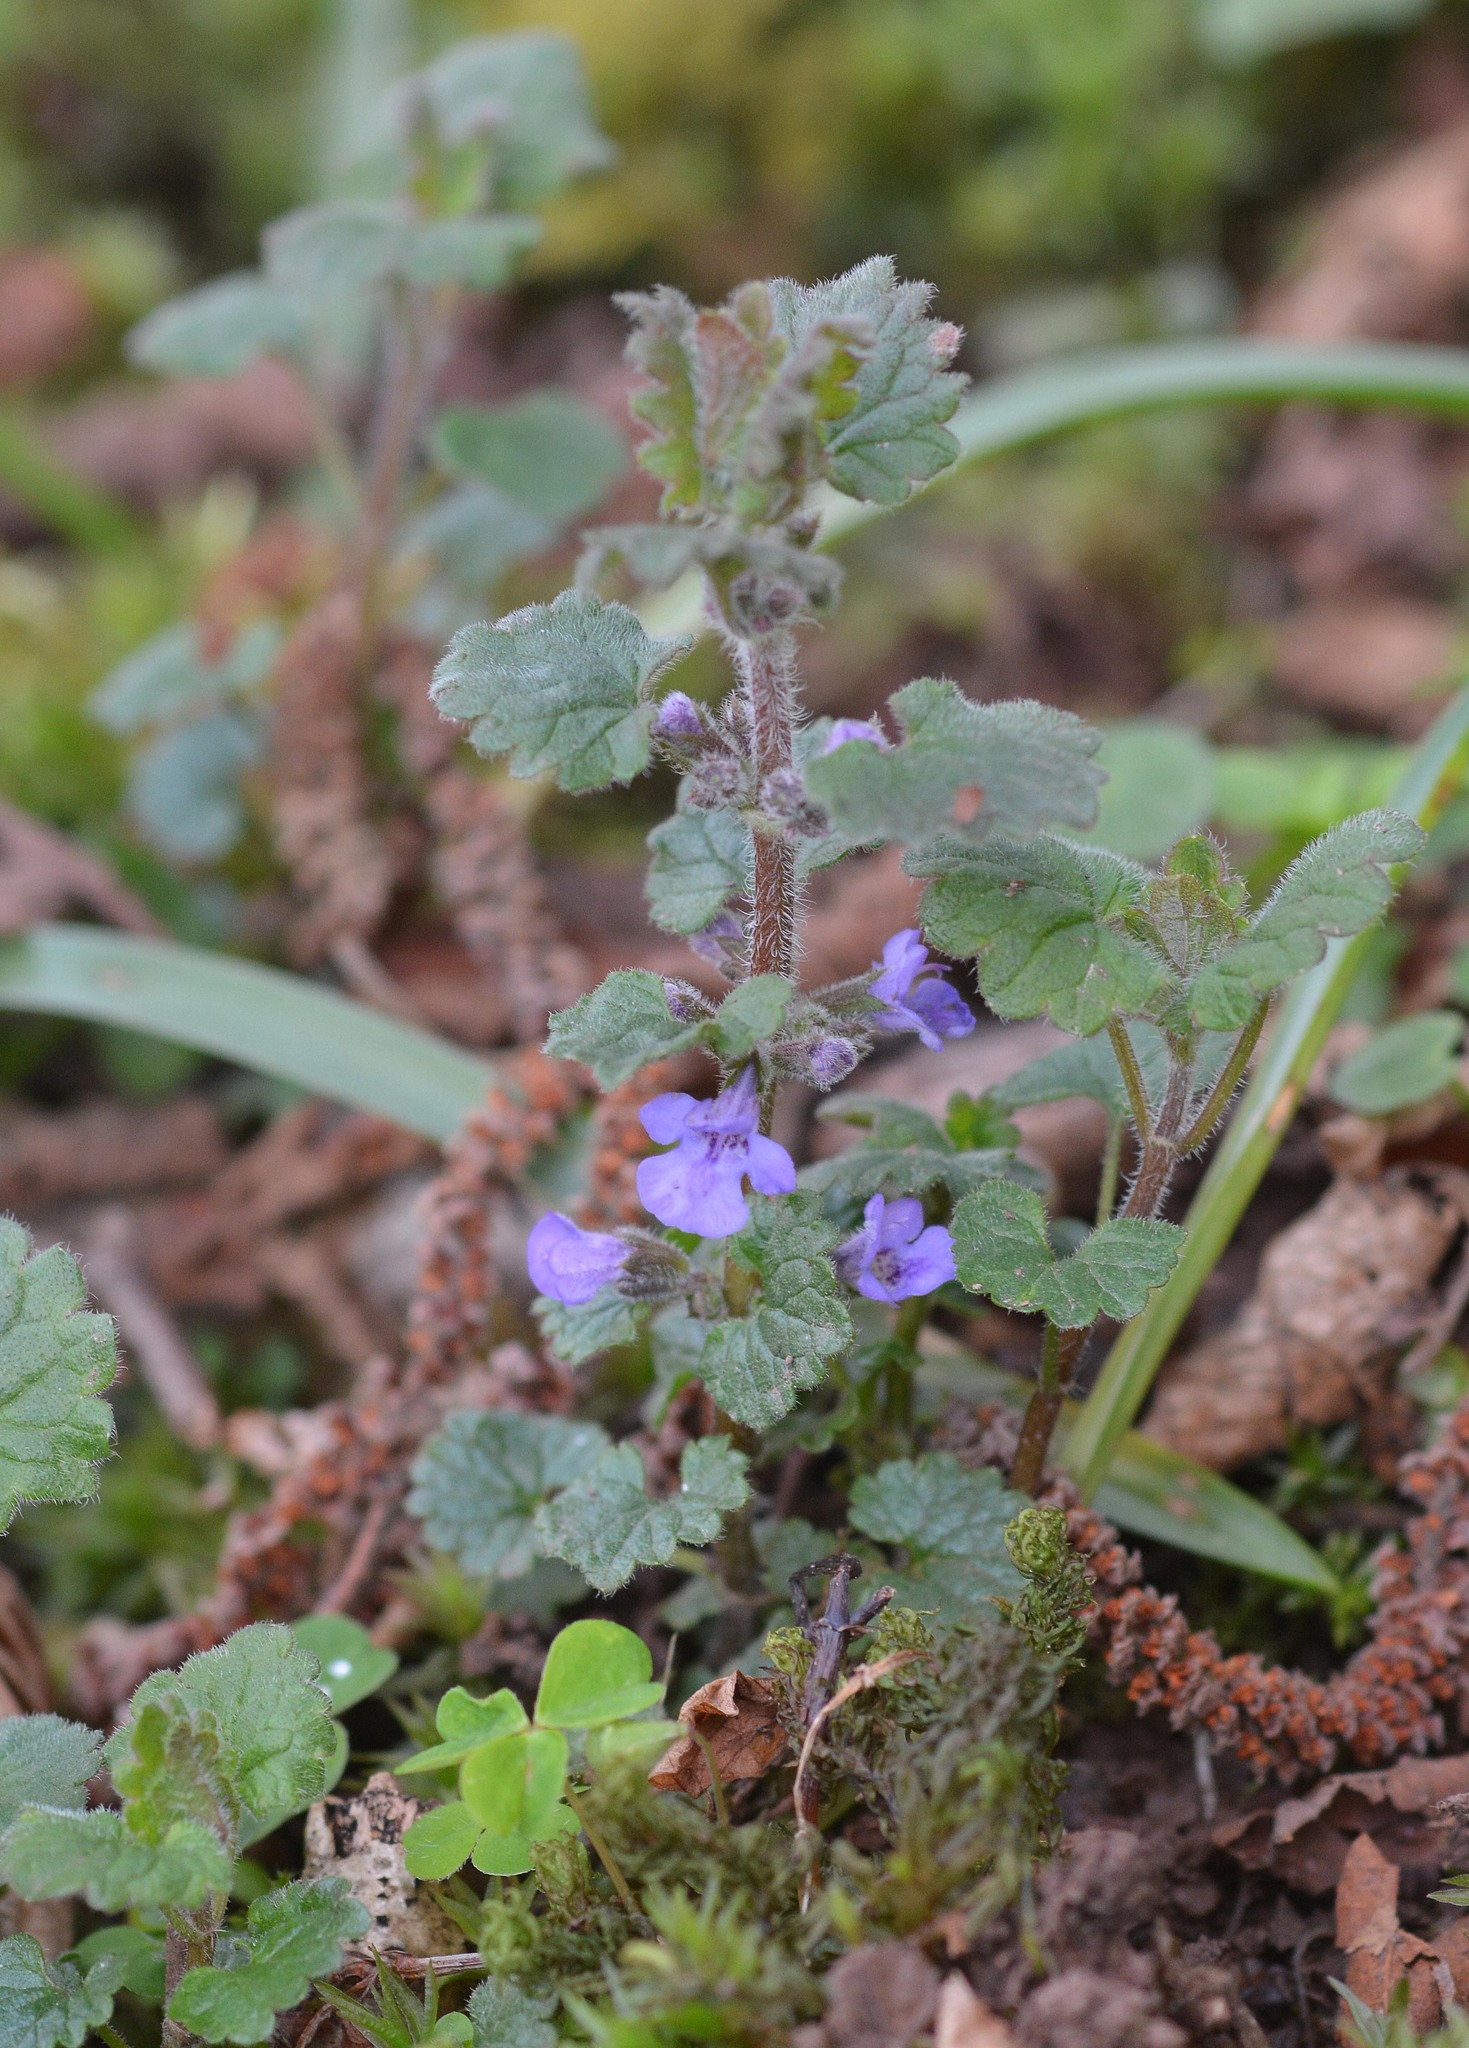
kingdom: Plantae
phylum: Tracheophyta
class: Magnoliopsida
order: Lamiales
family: Lamiaceae
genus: Glechoma
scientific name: Glechoma hederacea
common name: Ground ivy
